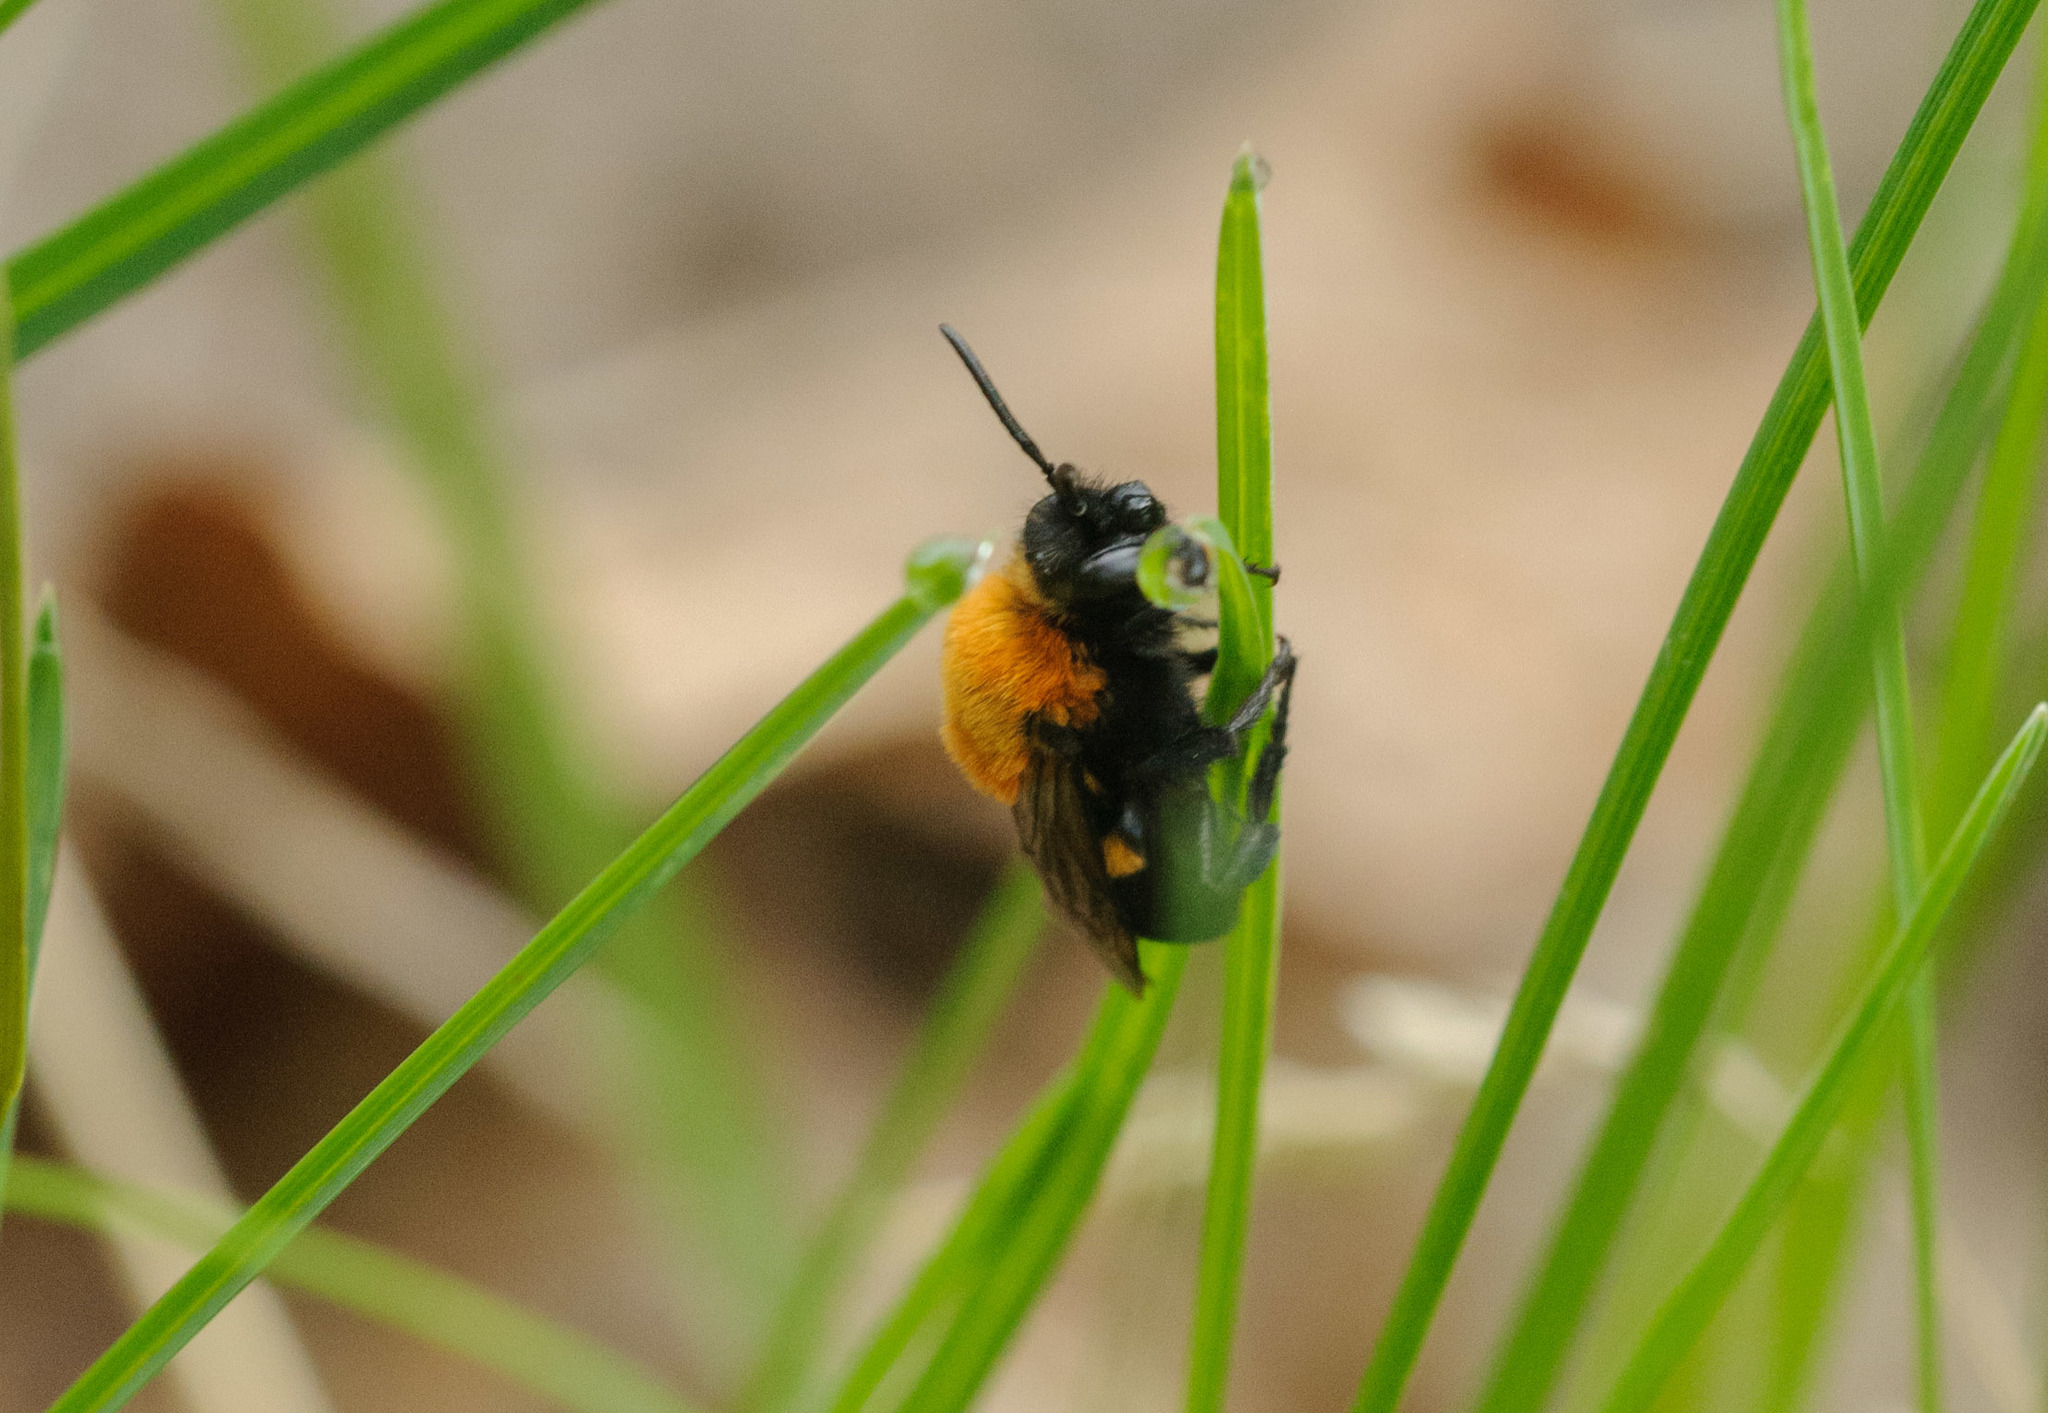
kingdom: Animalia
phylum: Arthropoda
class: Insecta
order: Hymenoptera
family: Apidae
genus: Melecta
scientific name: Melecta
